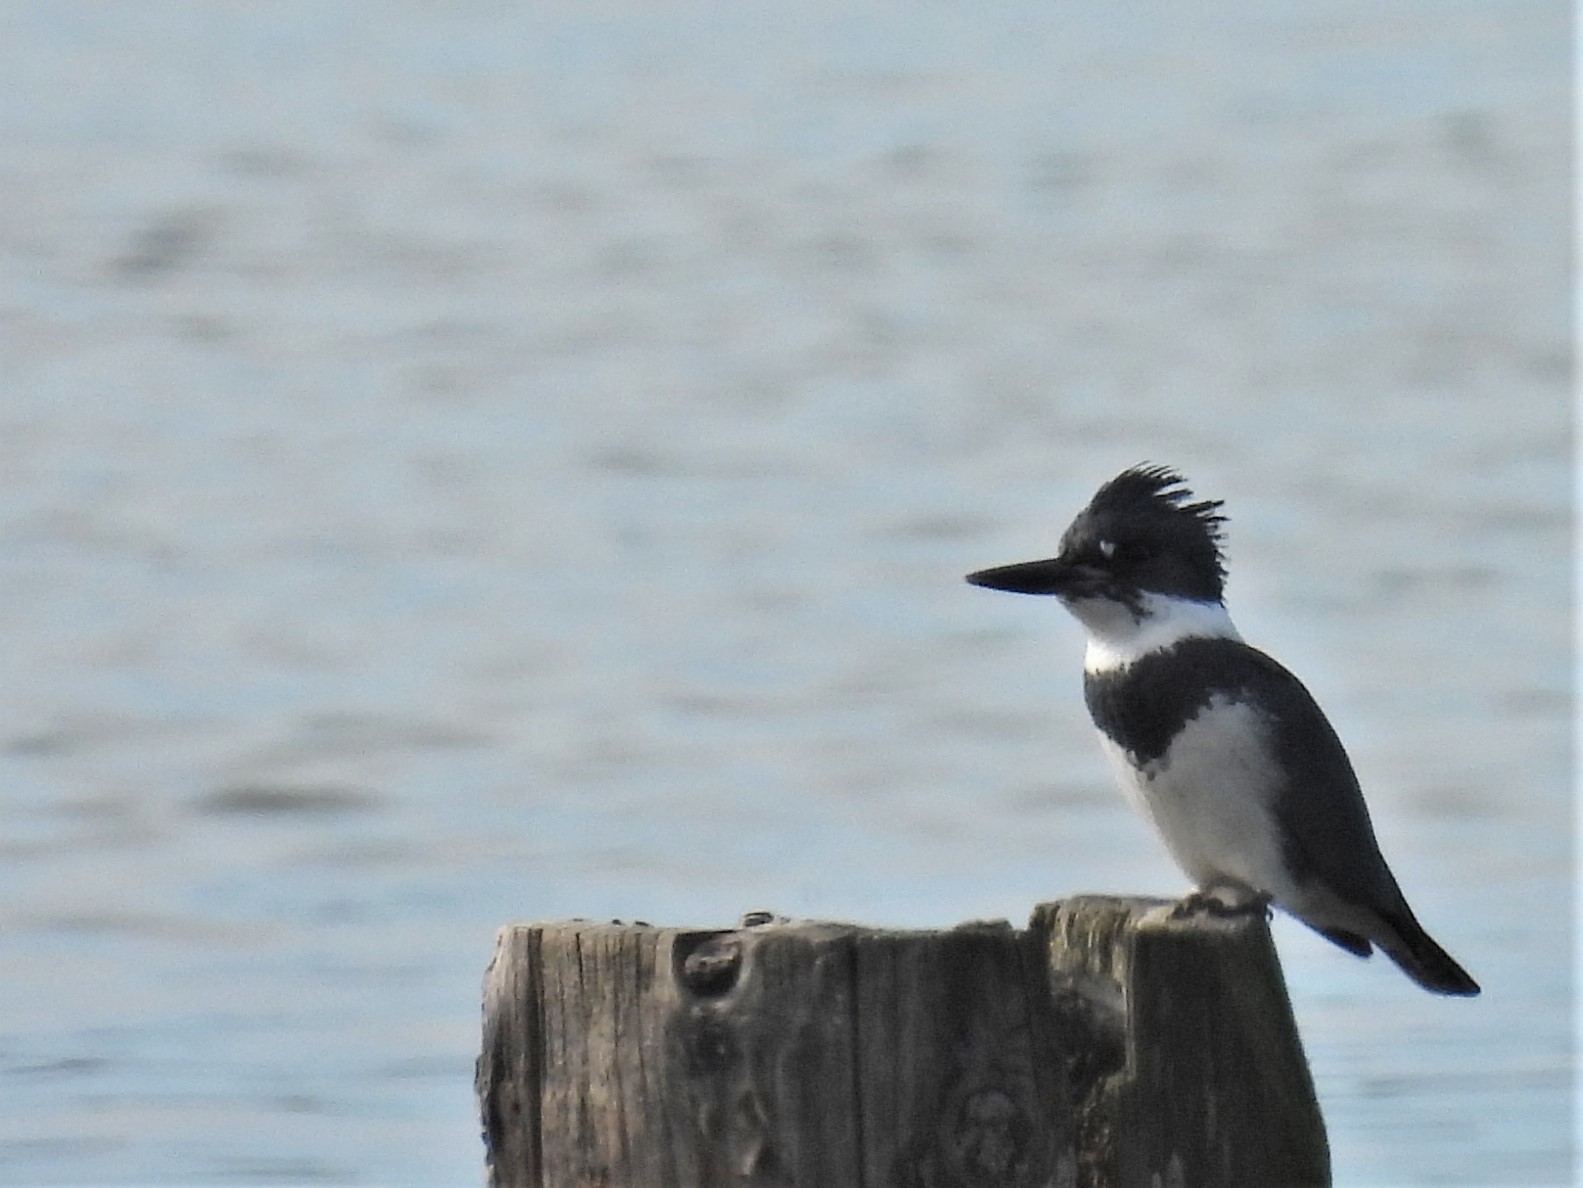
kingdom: Animalia
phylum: Chordata
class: Aves
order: Coraciiformes
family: Alcedinidae
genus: Megaceryle
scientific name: Megaceryle alcyon
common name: Belted kingfisher
